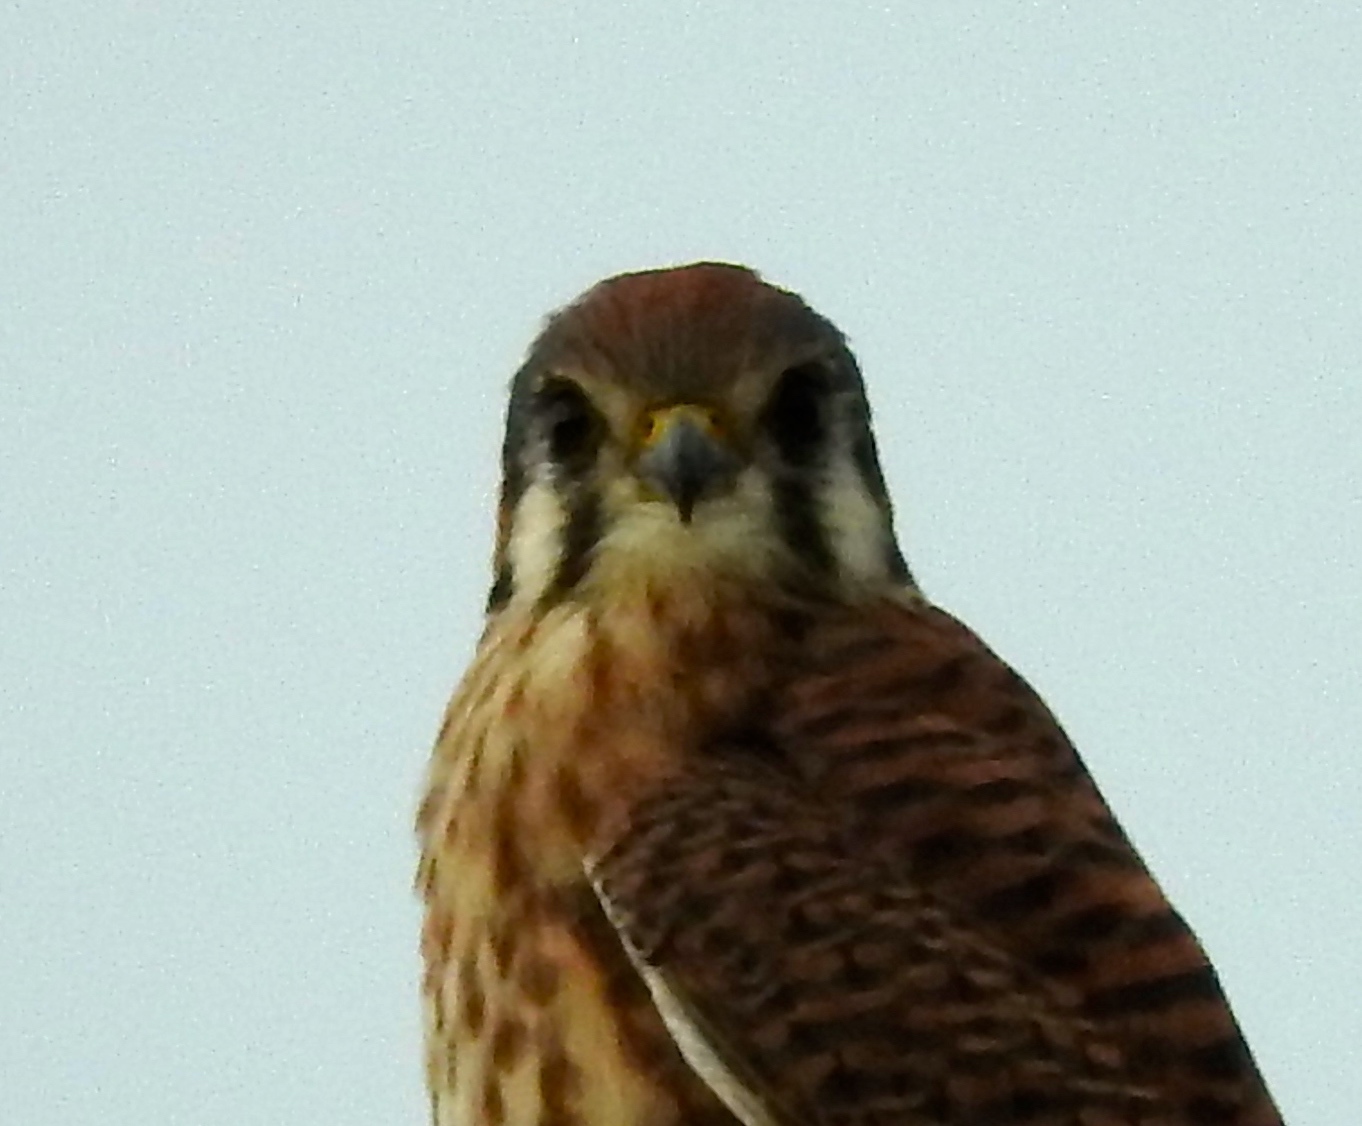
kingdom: Animalia
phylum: Chordata
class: Aves
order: Falconiformes
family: Falconidae
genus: Falco
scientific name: Falco sparverius
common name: American kestrel
